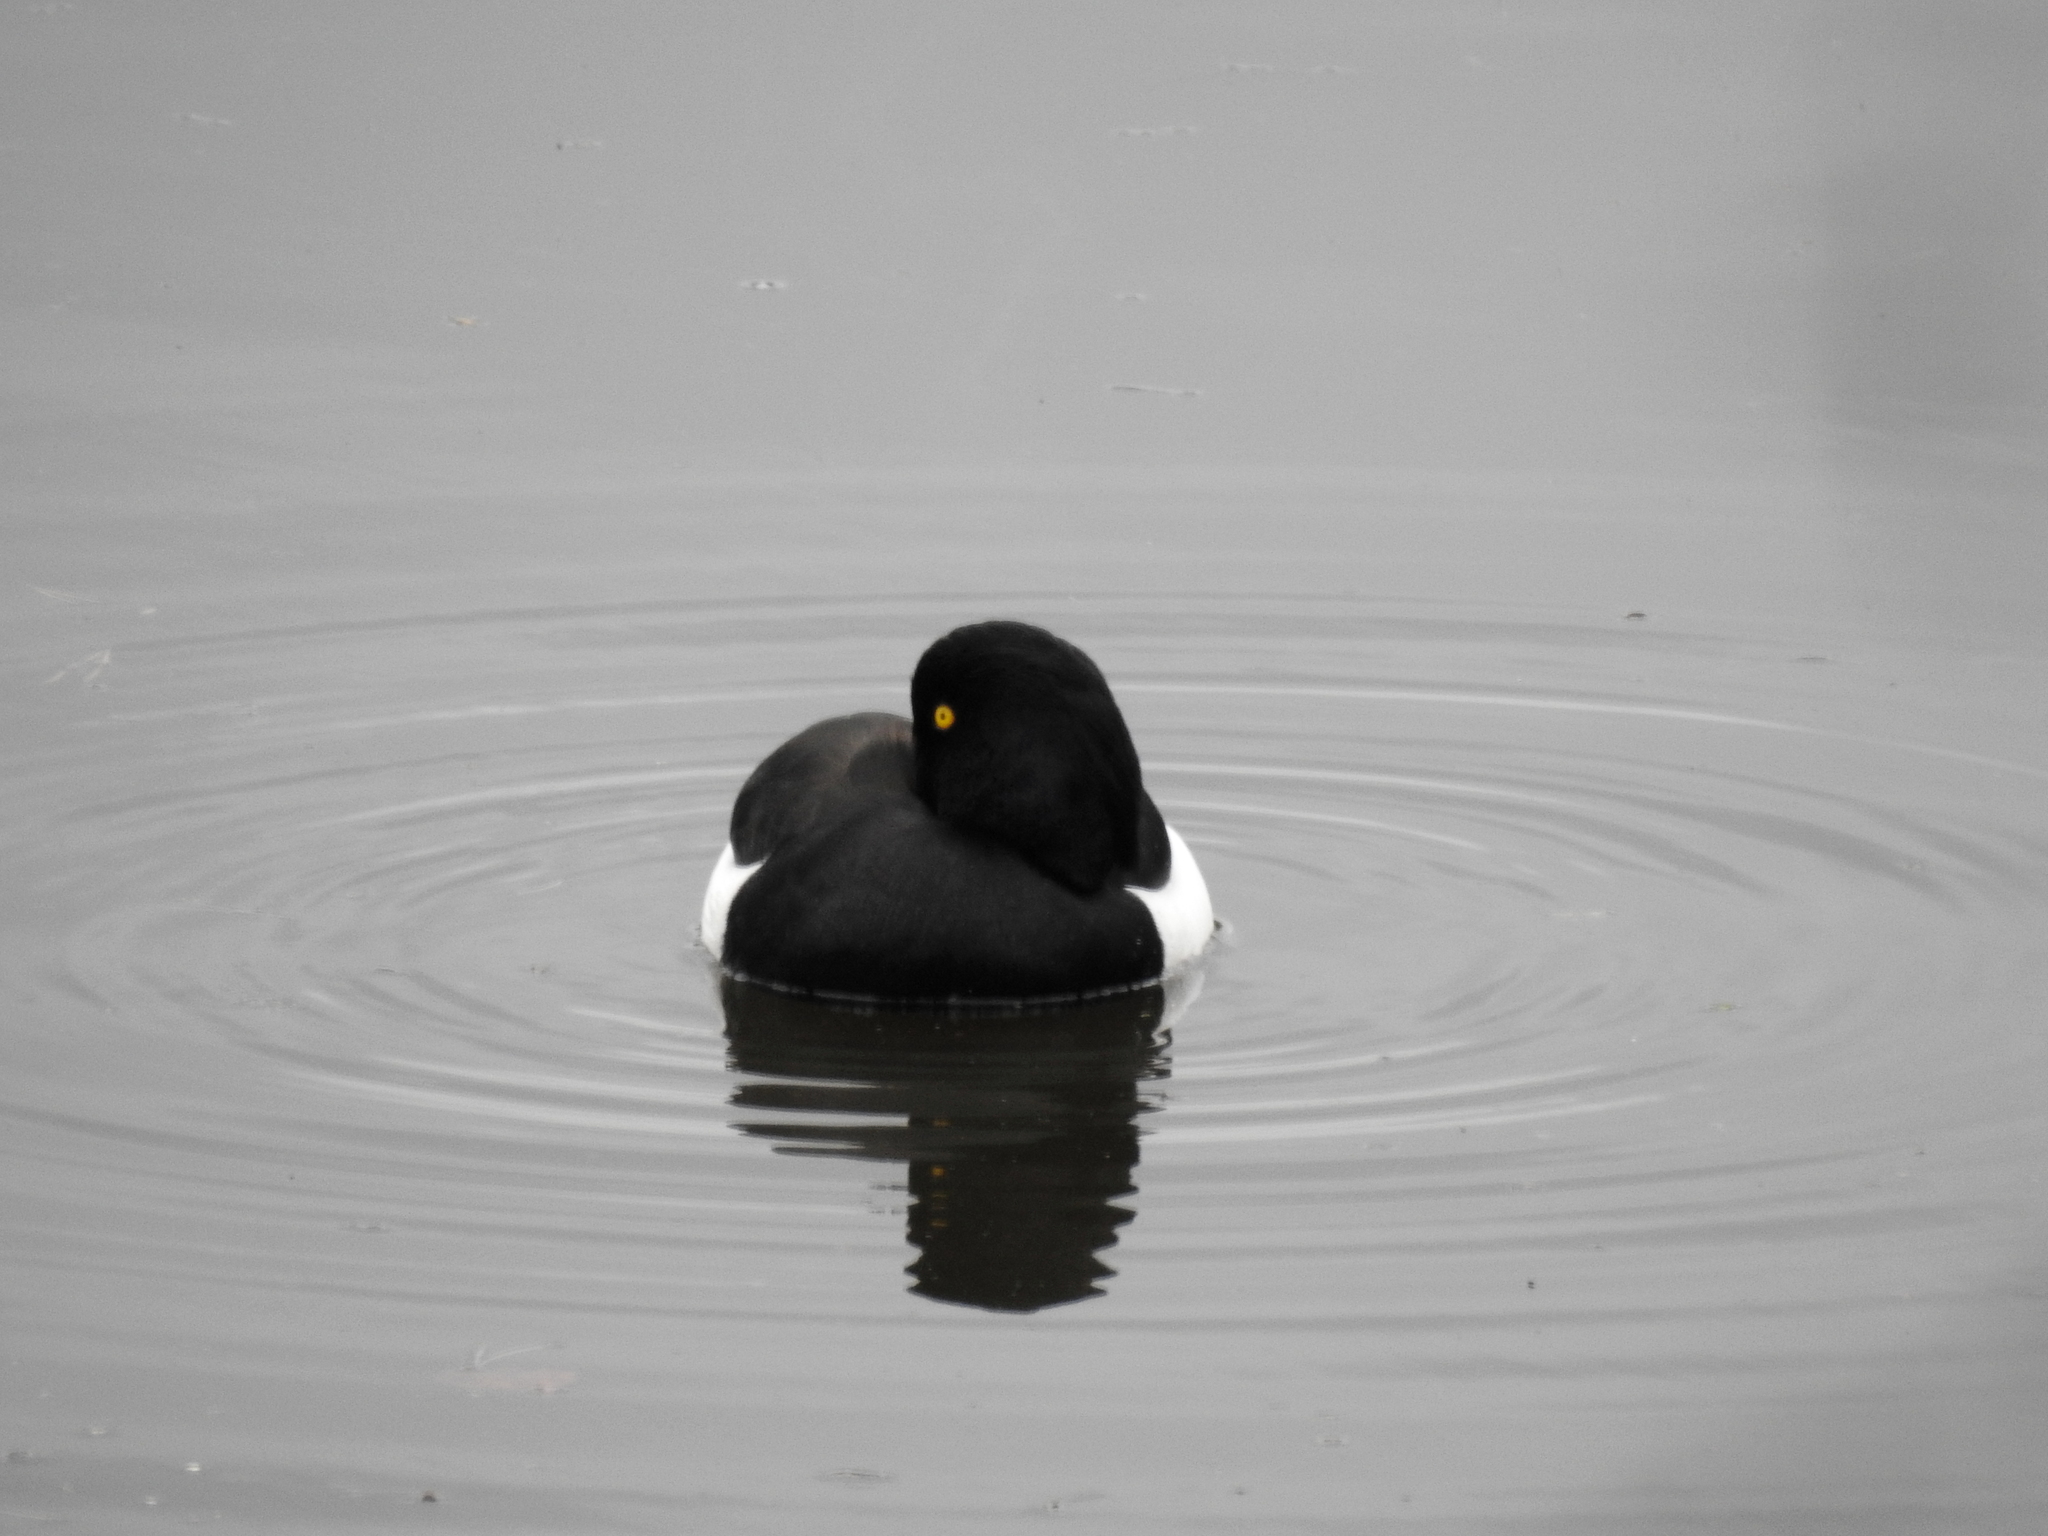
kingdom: Animalia
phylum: Chordata
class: Aves
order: Anseriformes
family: Anatidae
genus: Aythya
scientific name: Aythya fuligula
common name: Tufted duck
